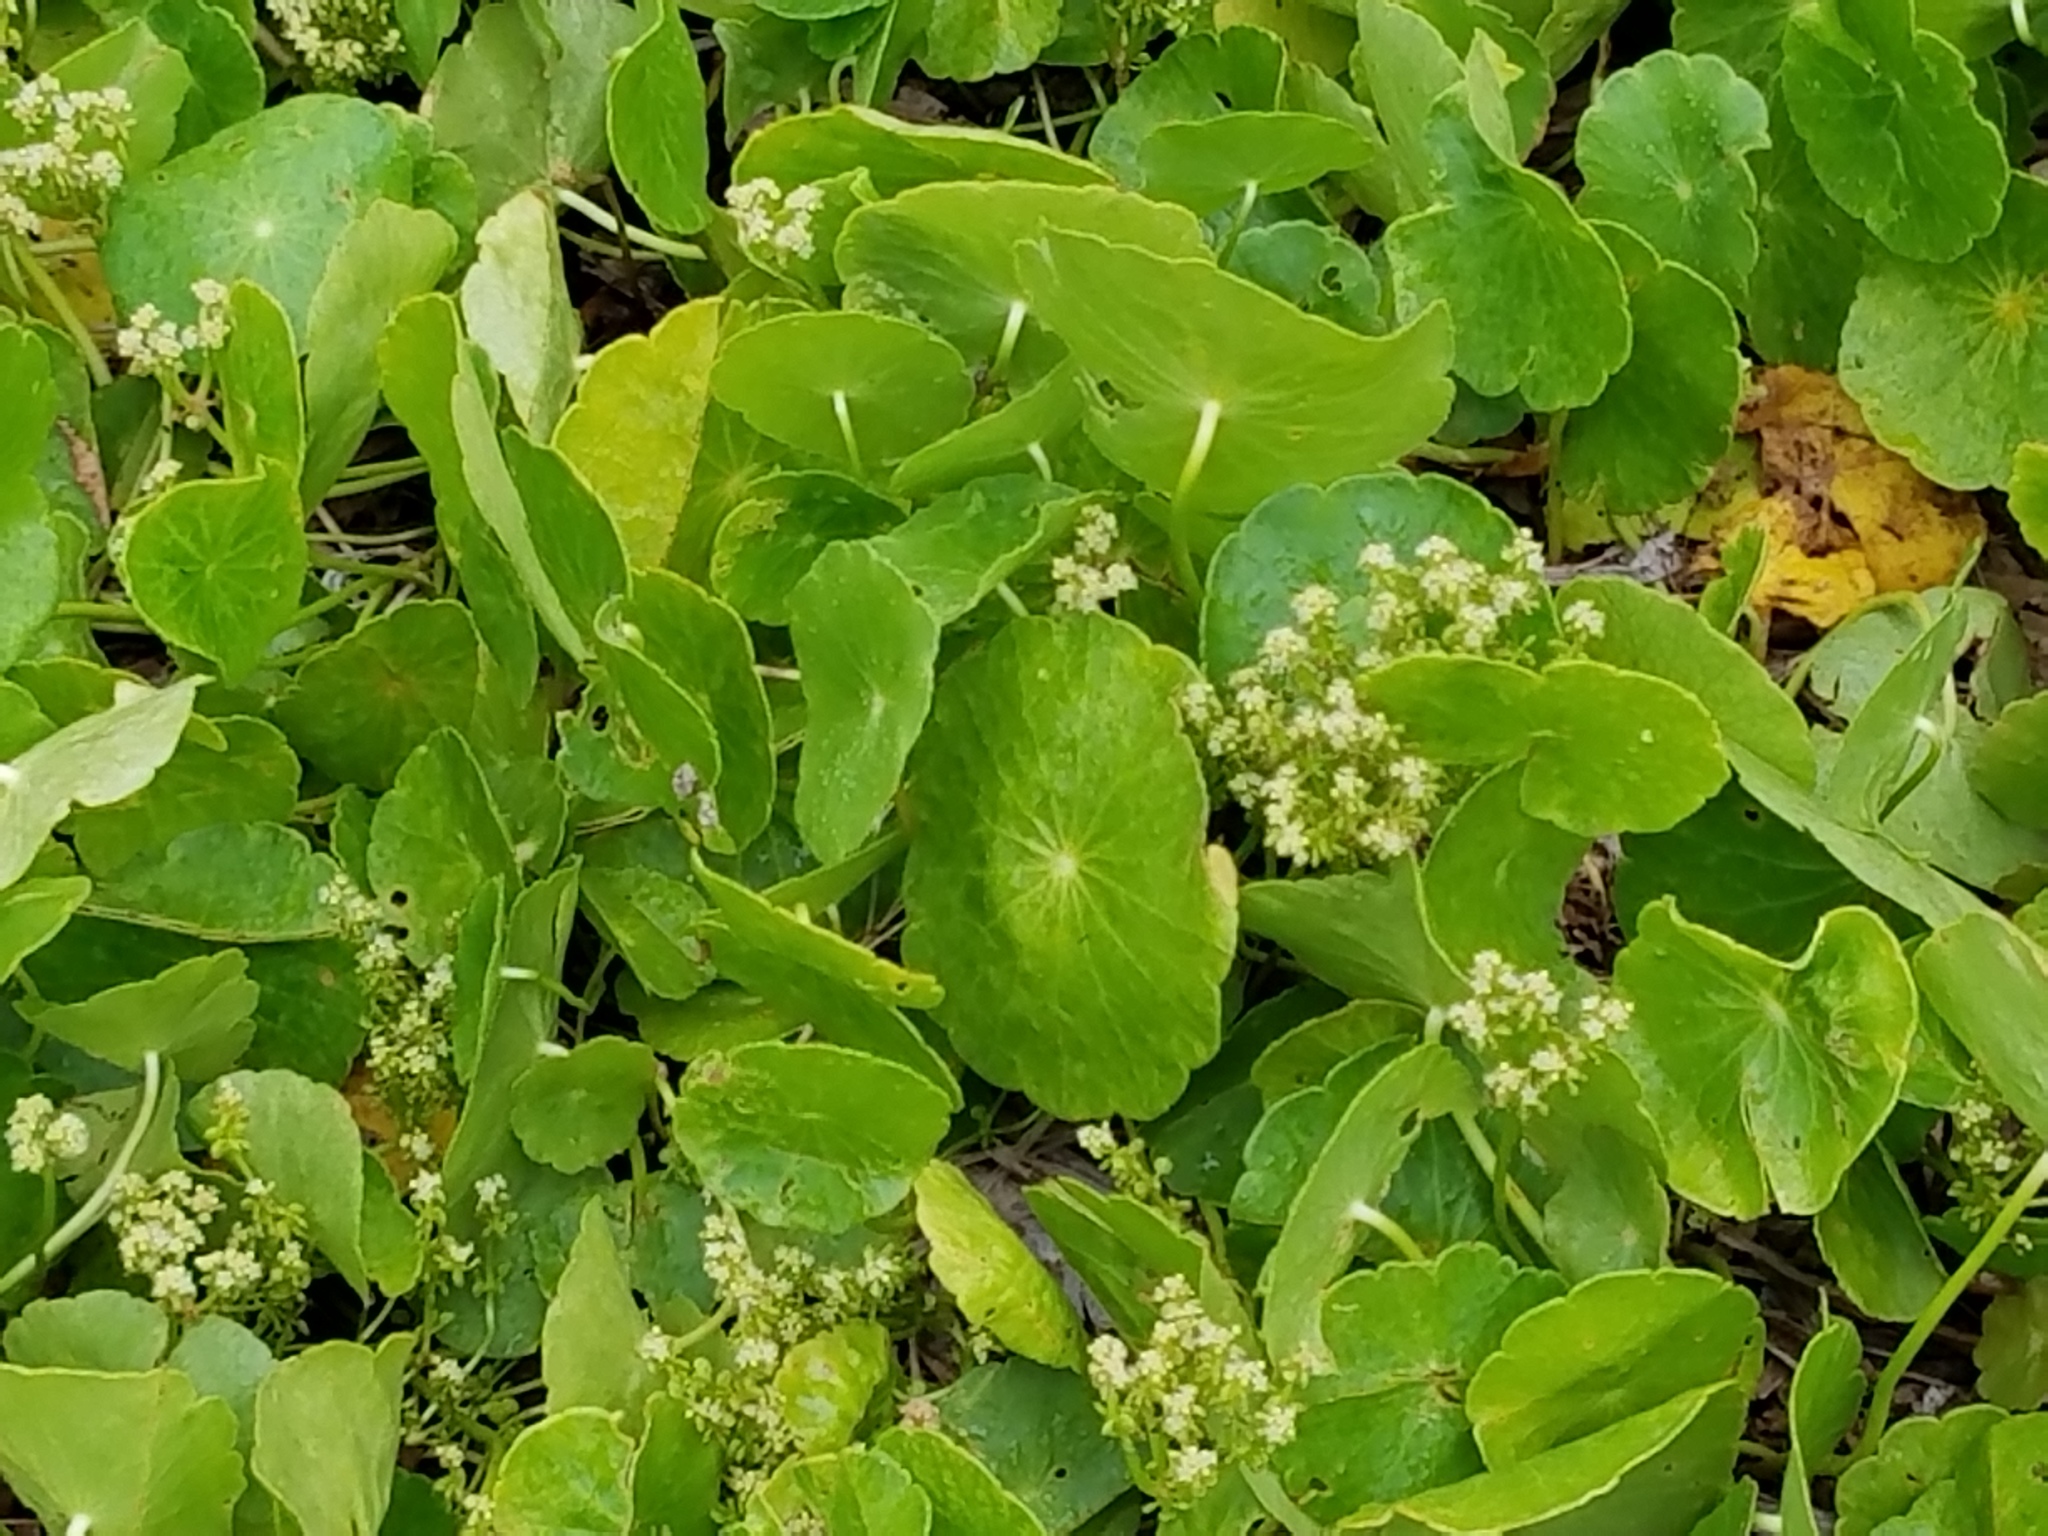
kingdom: Plantae
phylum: Tracheophyta
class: Magnoliopsida
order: Apiales
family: Araliaceae
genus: Hydrocotyle
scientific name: Hydrocotyle bonariensis
